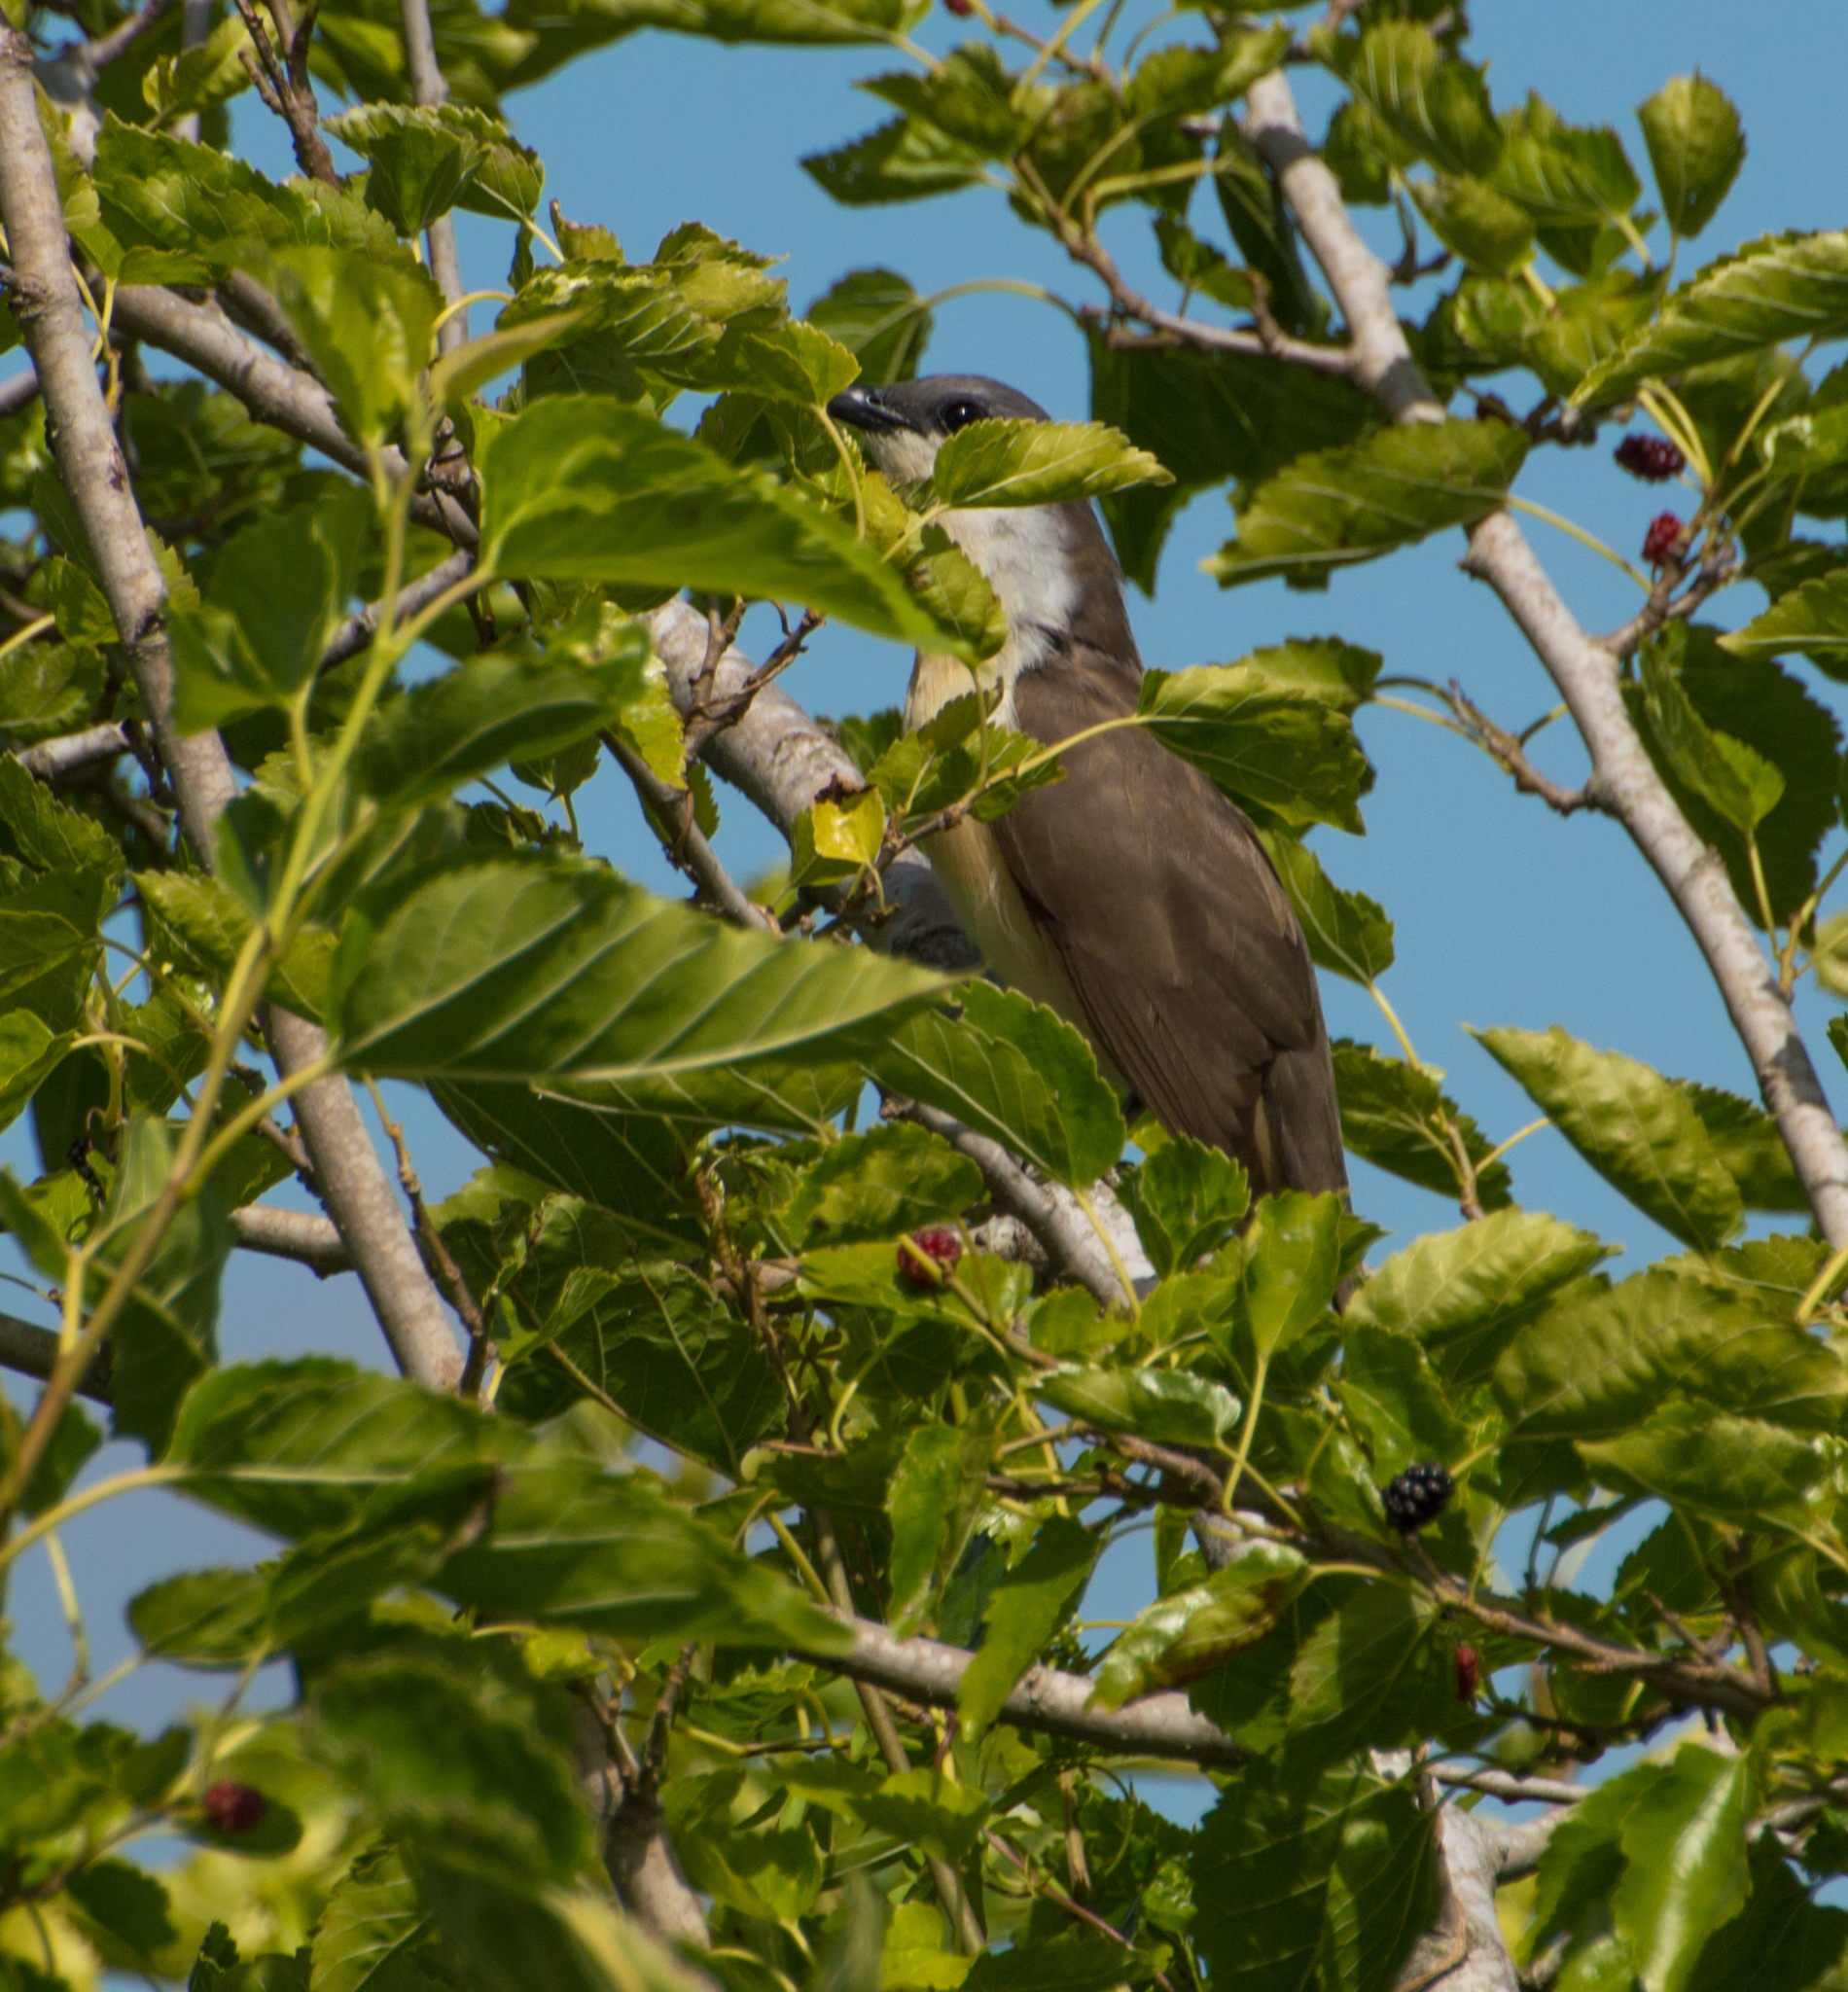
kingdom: Animalia
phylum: Chordata
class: Aves
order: Cuculiformes
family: Cuculidae
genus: Coccyzus
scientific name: Coccyzus melacoryphus
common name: Dark-billed cuckoo
